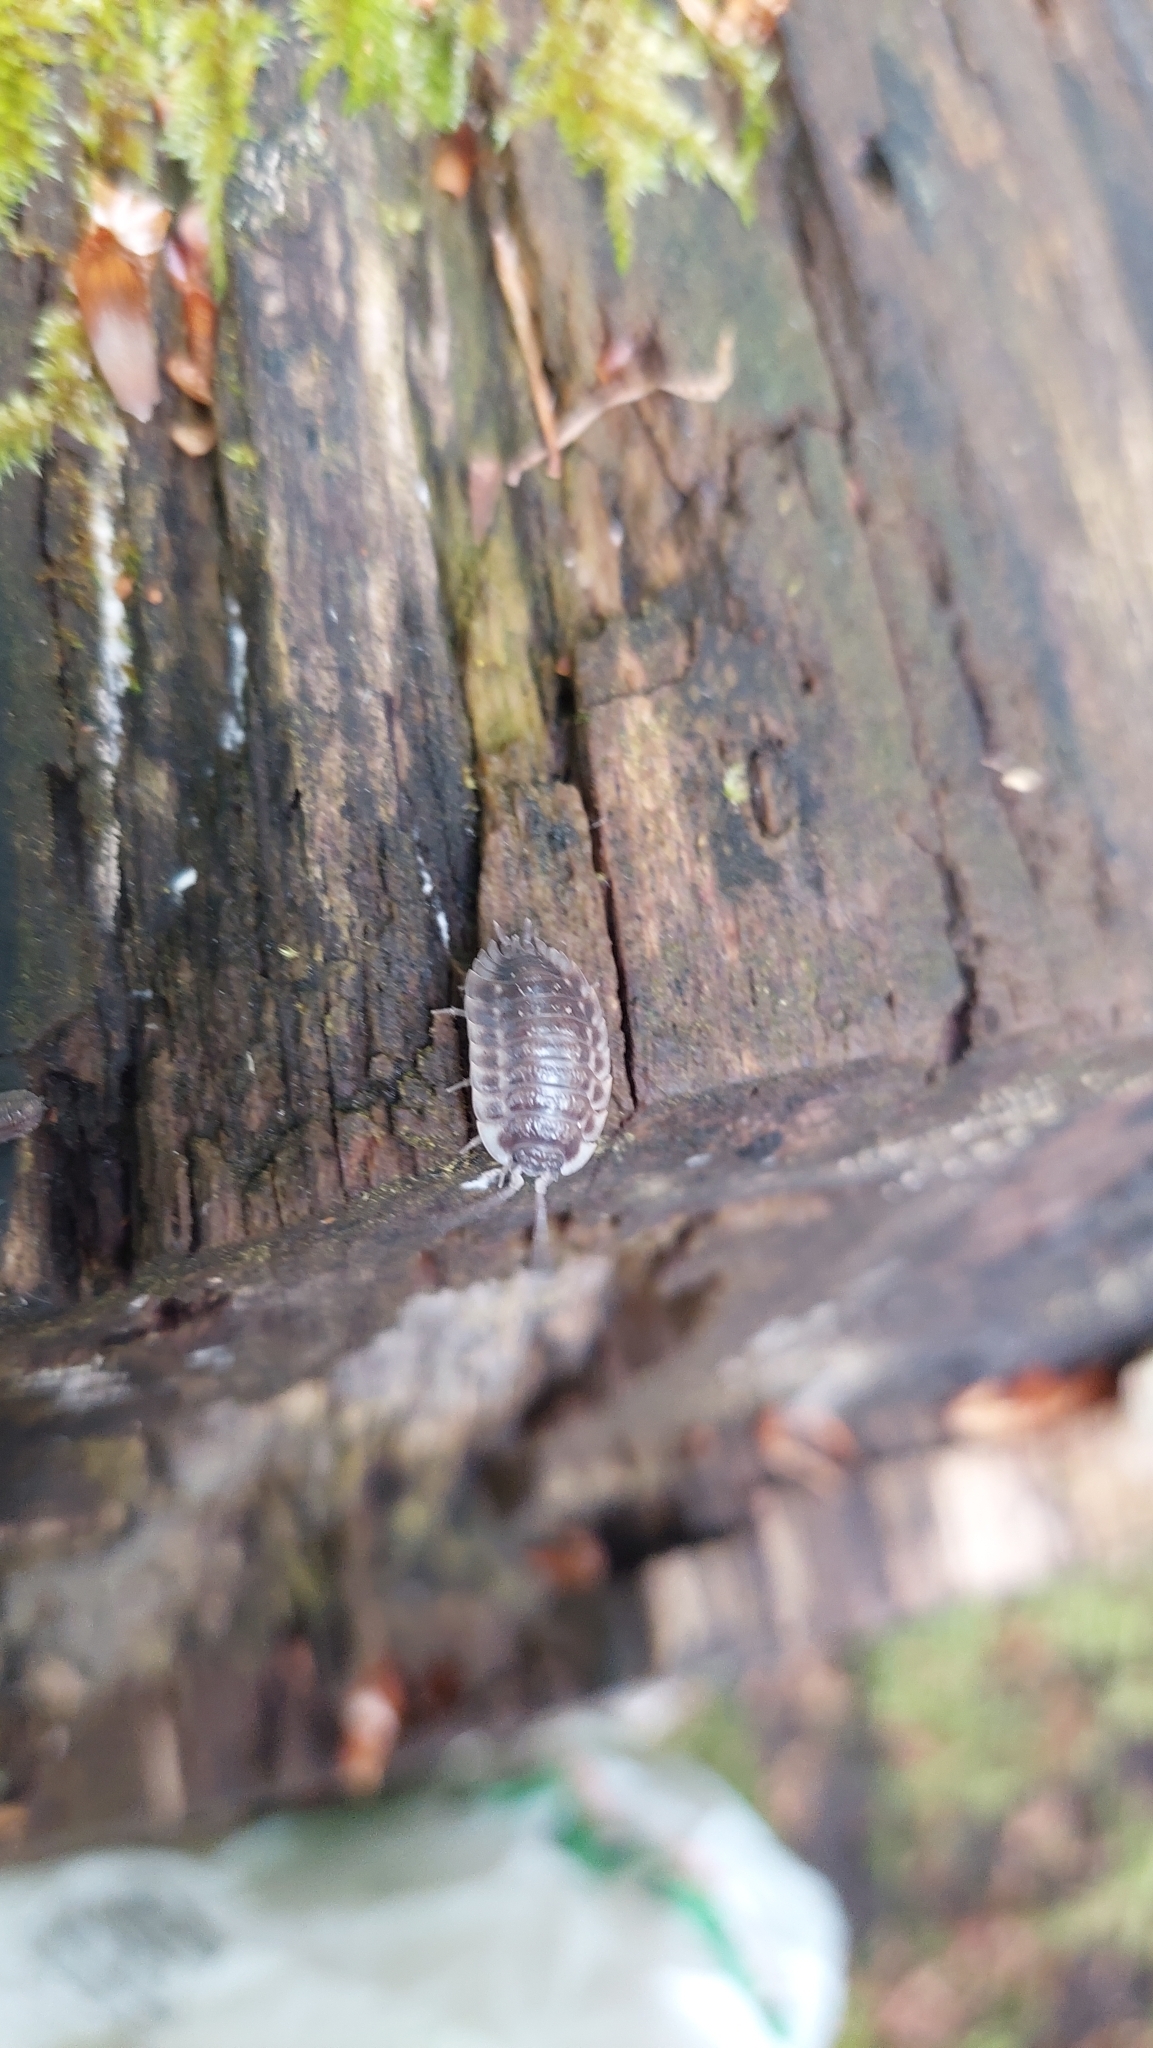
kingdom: Animalia
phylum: Arthropoda
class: Malacostraca
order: Isopoda
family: Oniscidae
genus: Oniscus
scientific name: Oniscus asellus
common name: Common shiny woodlouse
